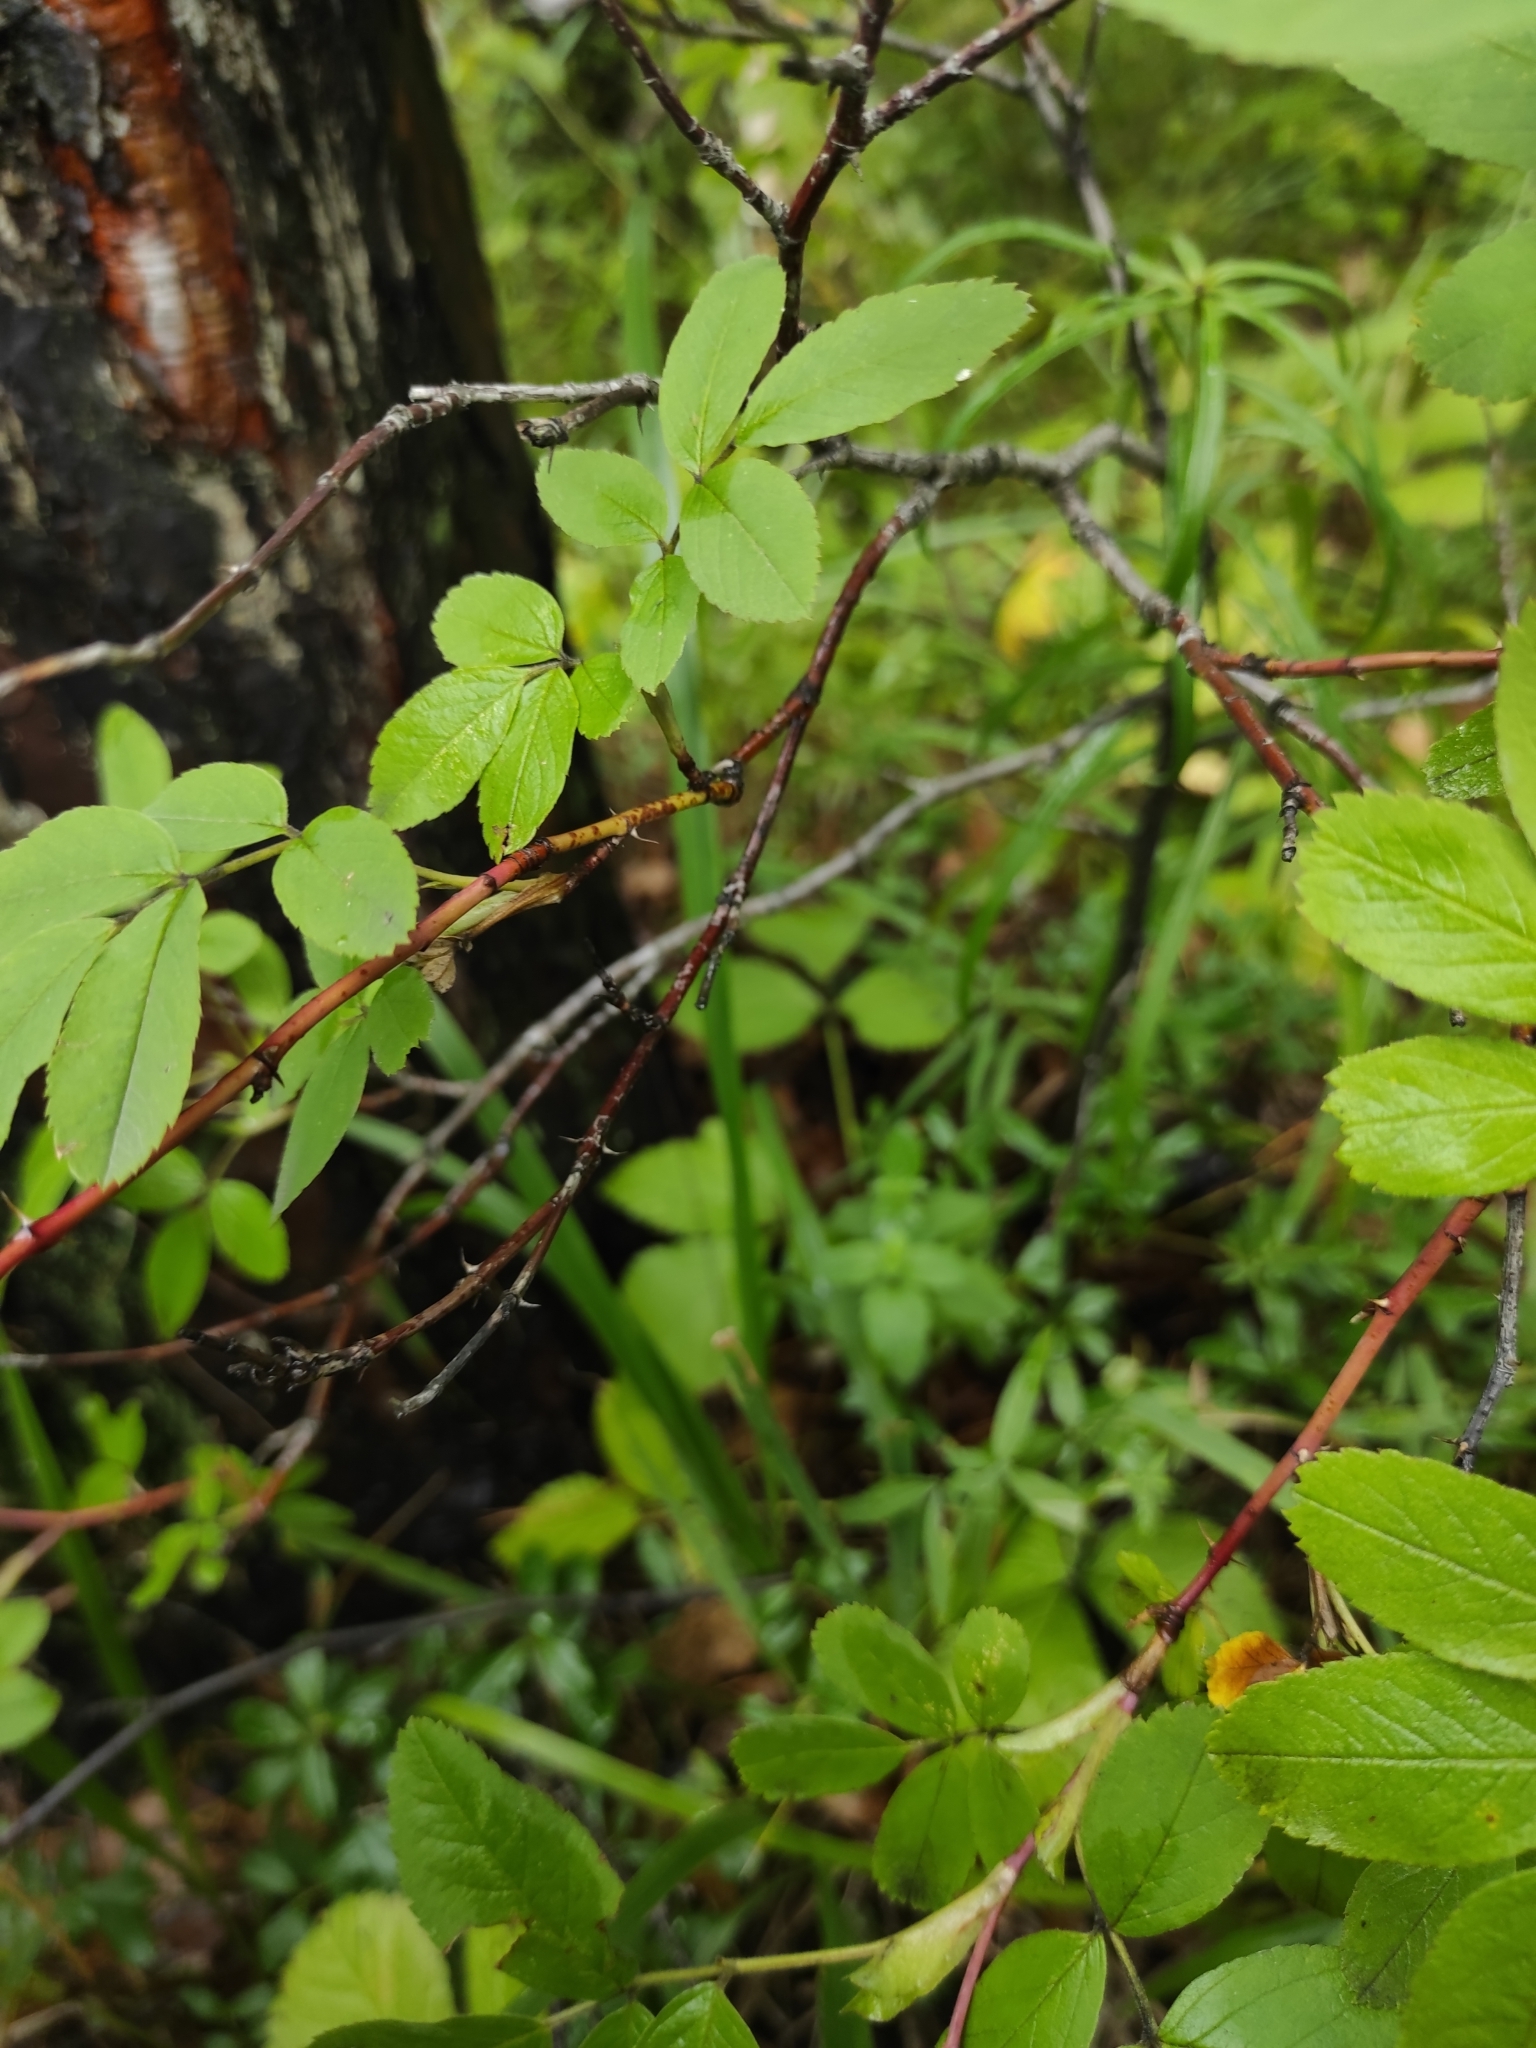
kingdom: Plantae
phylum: Tracheophyta
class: Magnoliopsida
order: Rosales
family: Rosaceae
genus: Rosa
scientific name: Rosa
